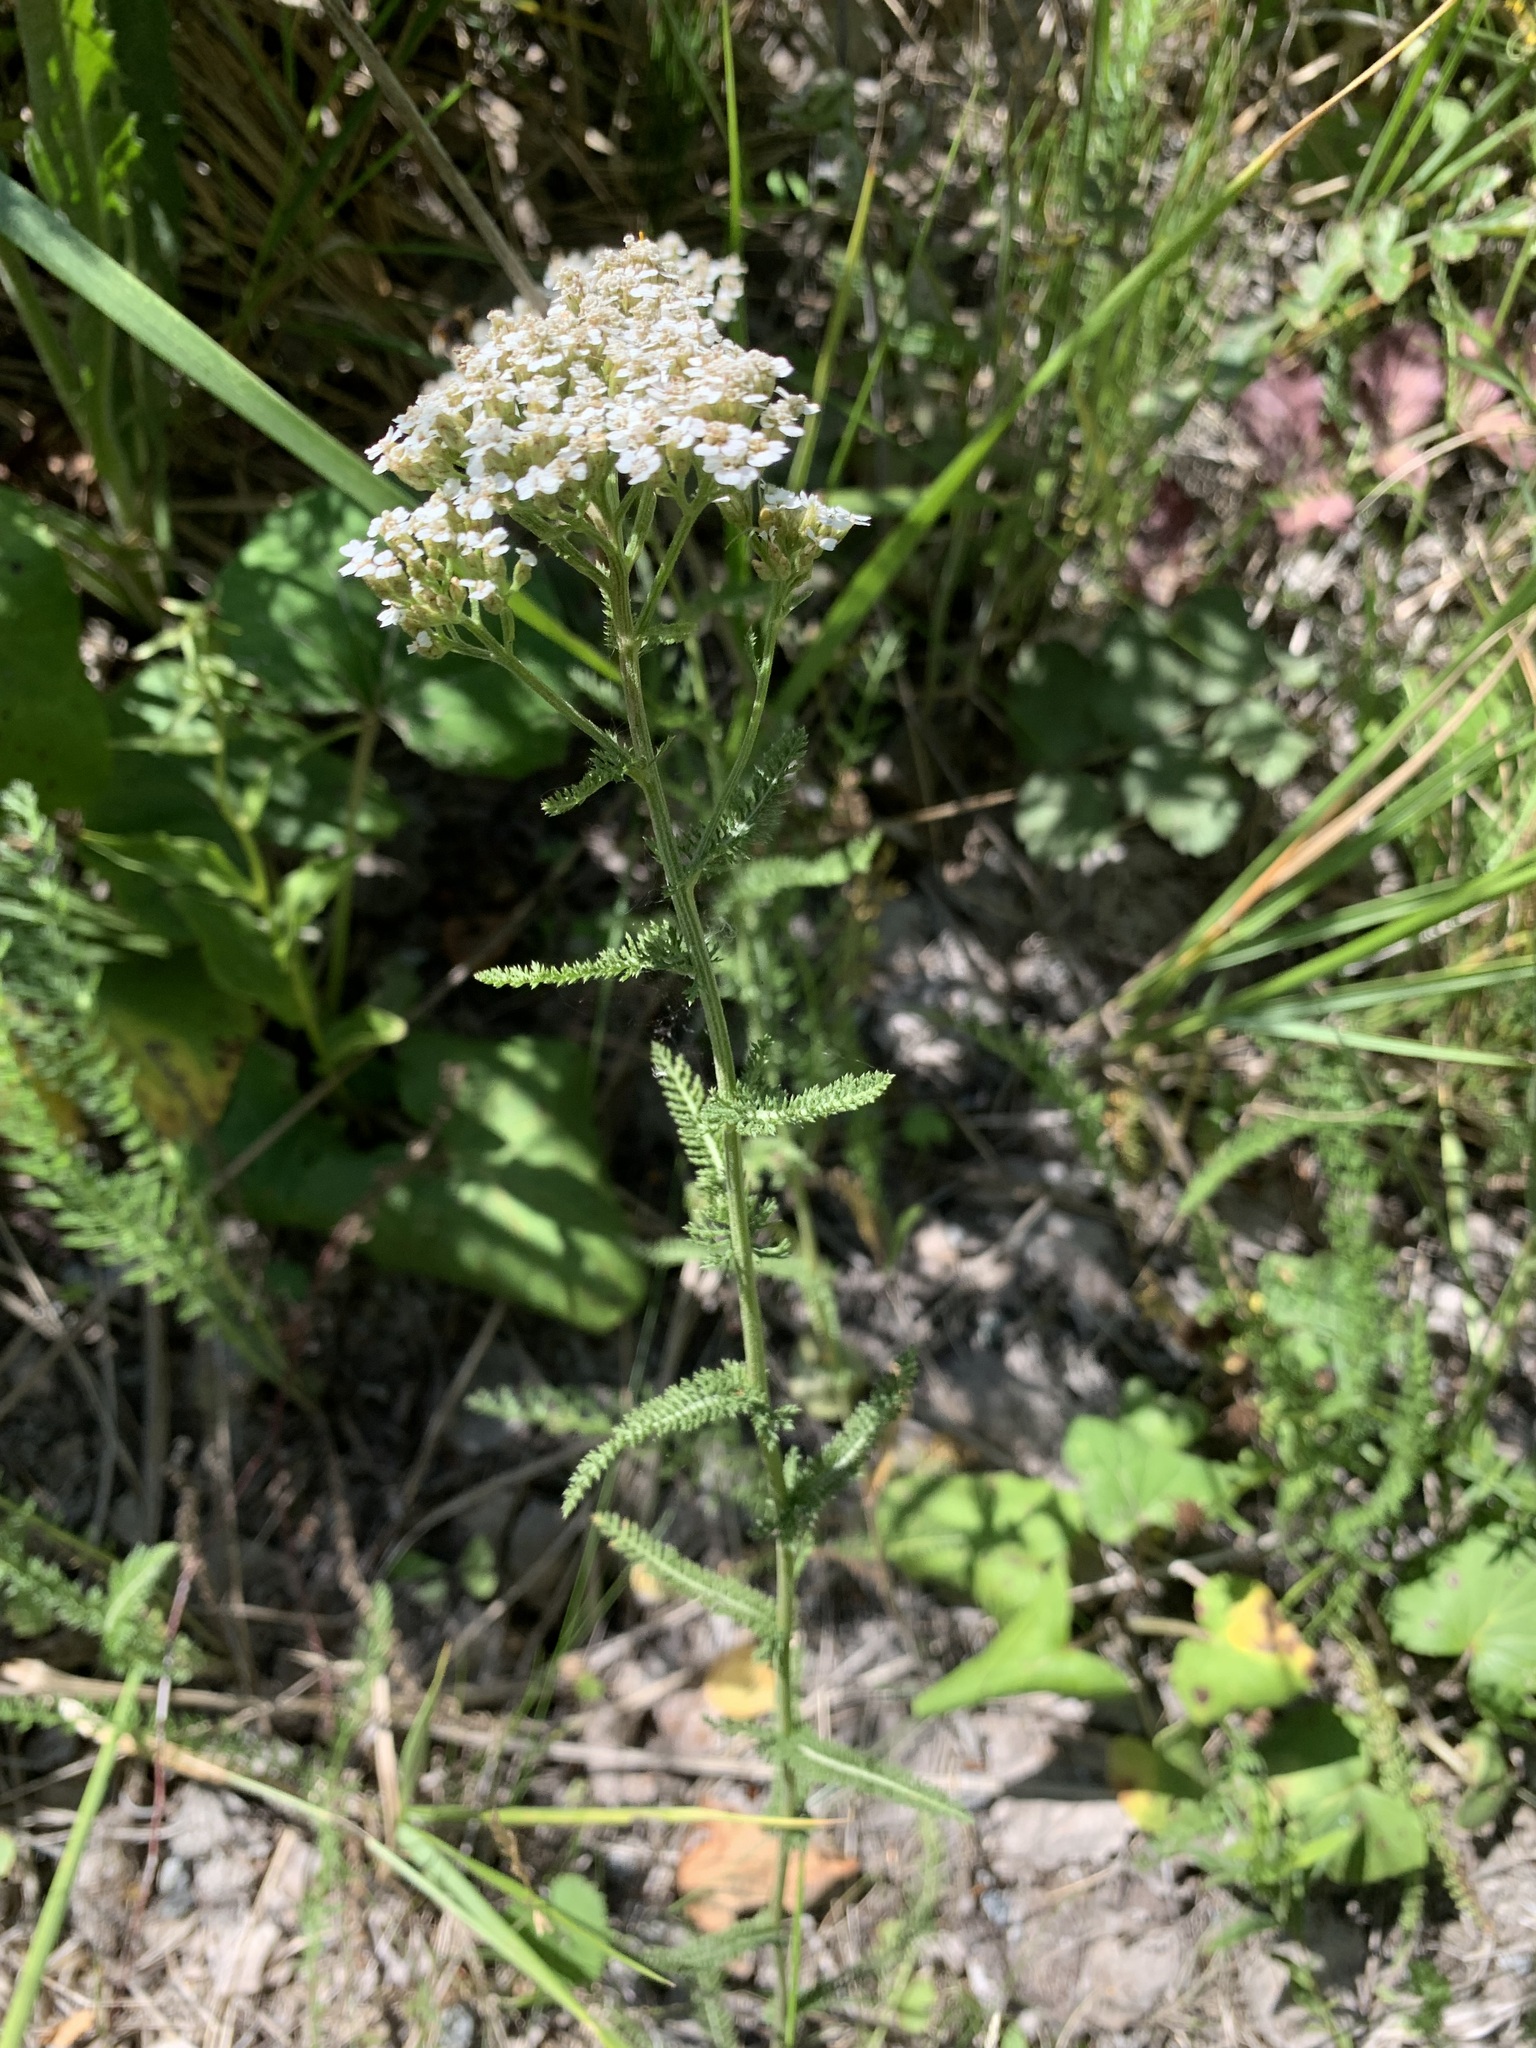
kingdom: Plantae
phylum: Tracheophyta
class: Magnoliopsida
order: Asterales
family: Asteraceae
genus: Achillea
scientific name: Achillea asiatica
